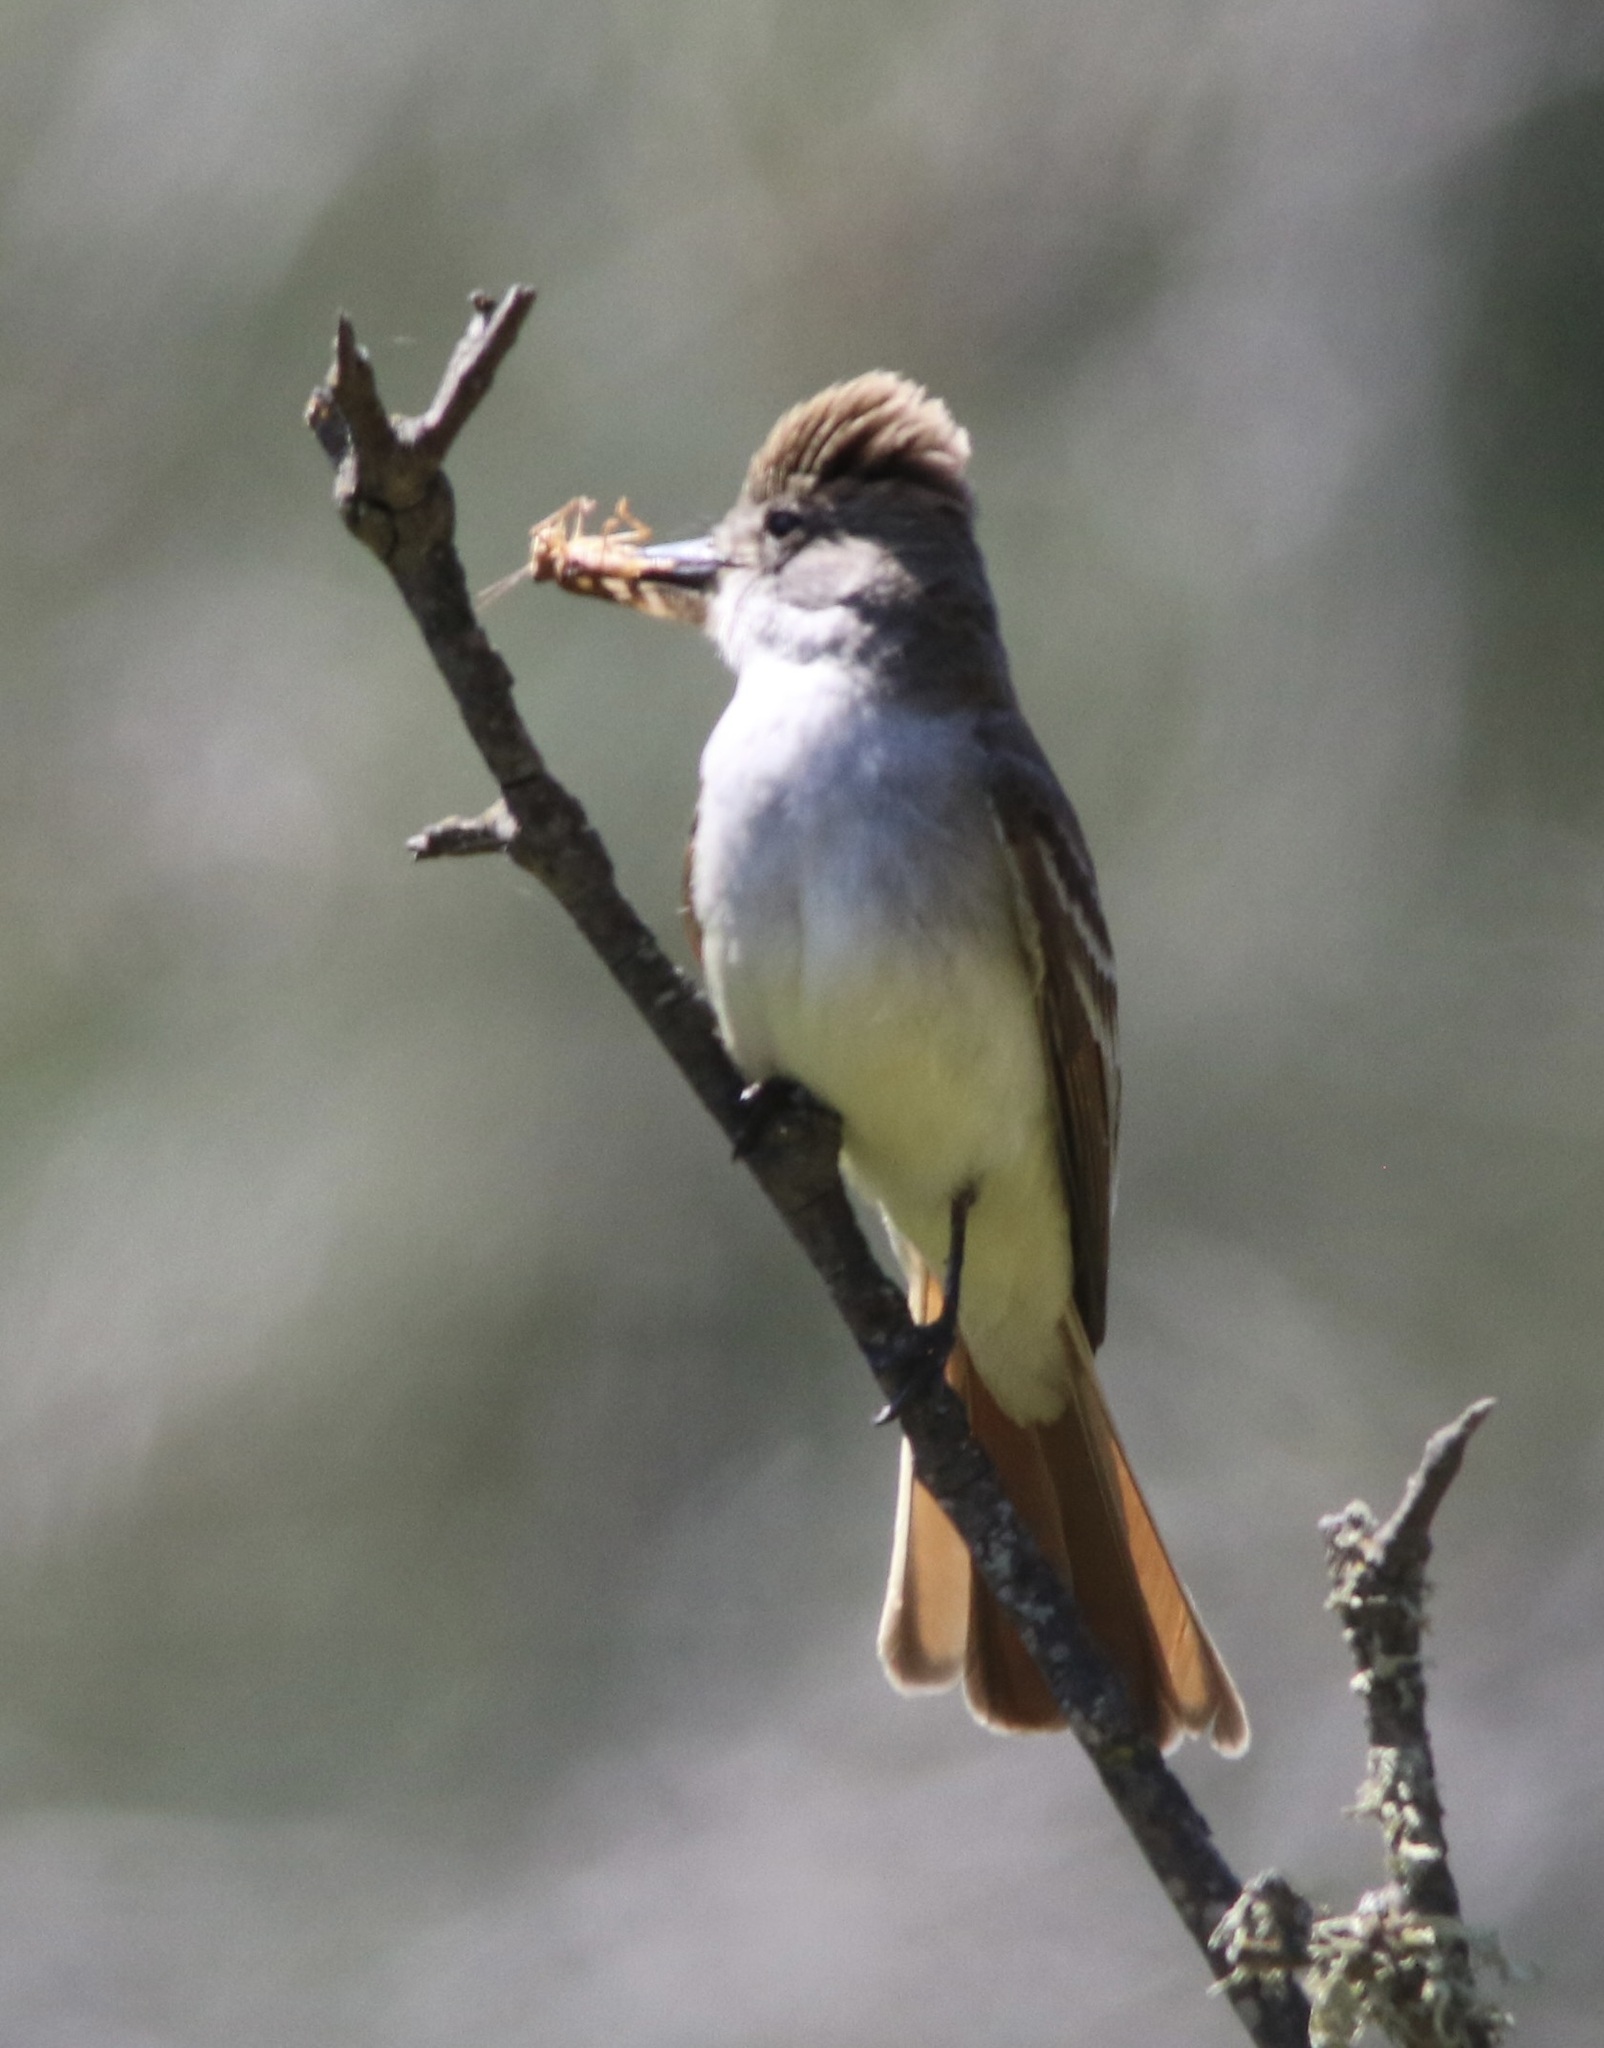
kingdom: Animalia
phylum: Chordata
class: Aves
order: Passeriformes
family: Tyrannidae
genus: Myiarchus
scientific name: Myiarchus cinerascens
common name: Ash-throated flycatcher
